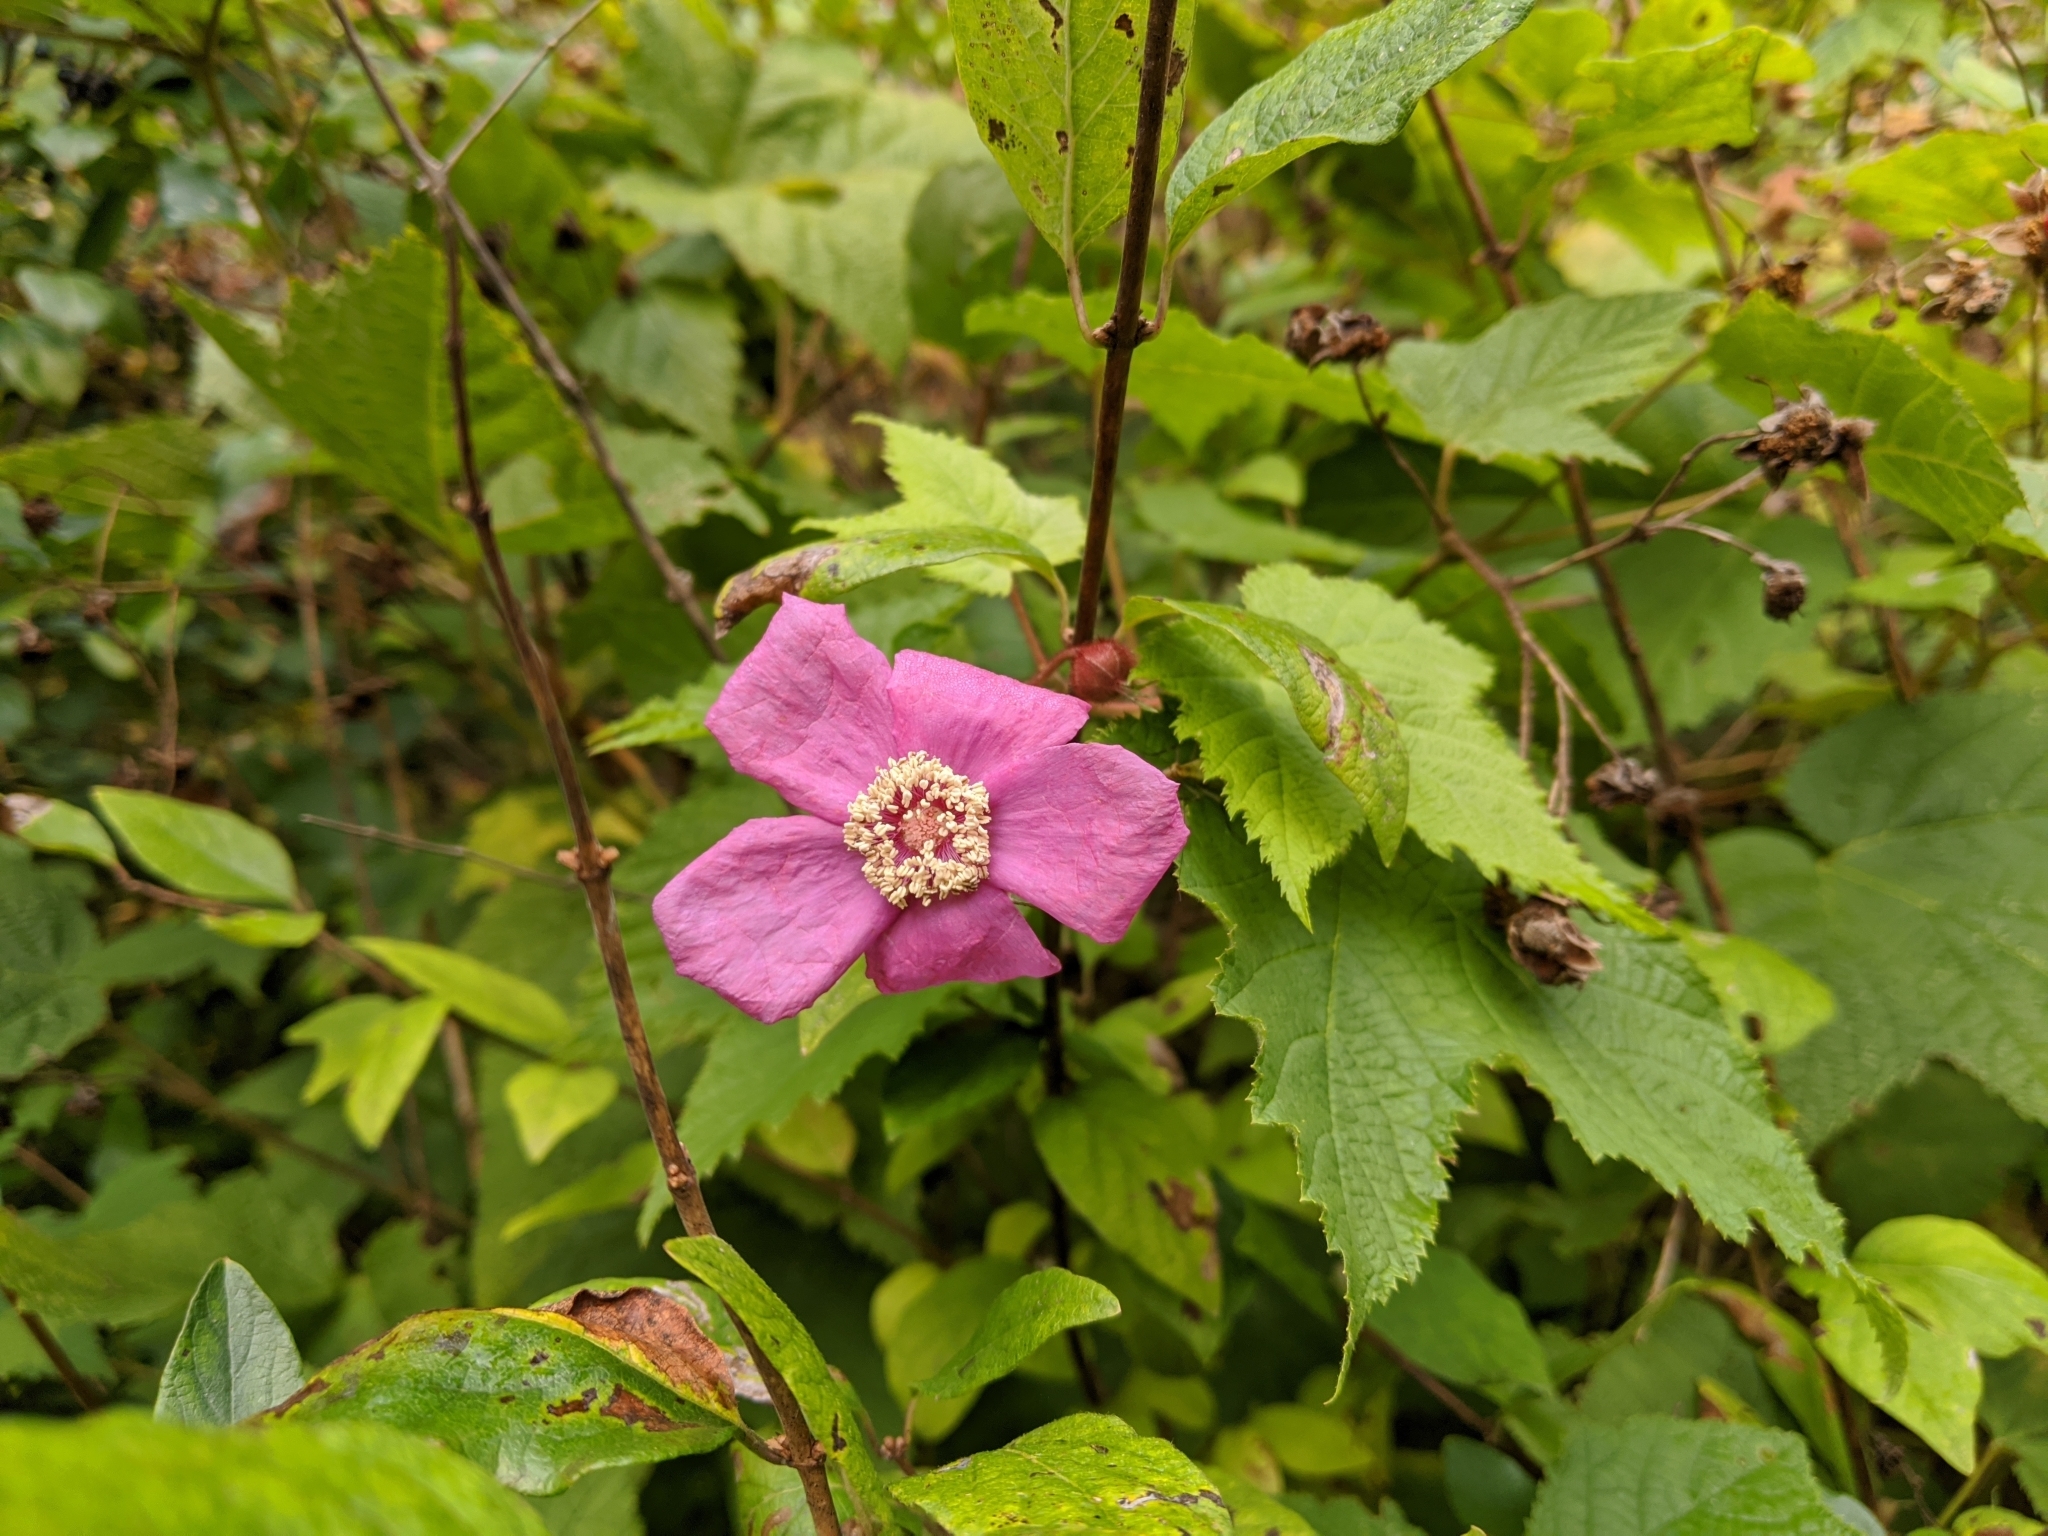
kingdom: Plantae
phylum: Tracheophyta
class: Magnoliopsida
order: Rosales
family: Rosaceae
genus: Rubus
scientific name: Rubus odoratus
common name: Purple-flowered raspberry
